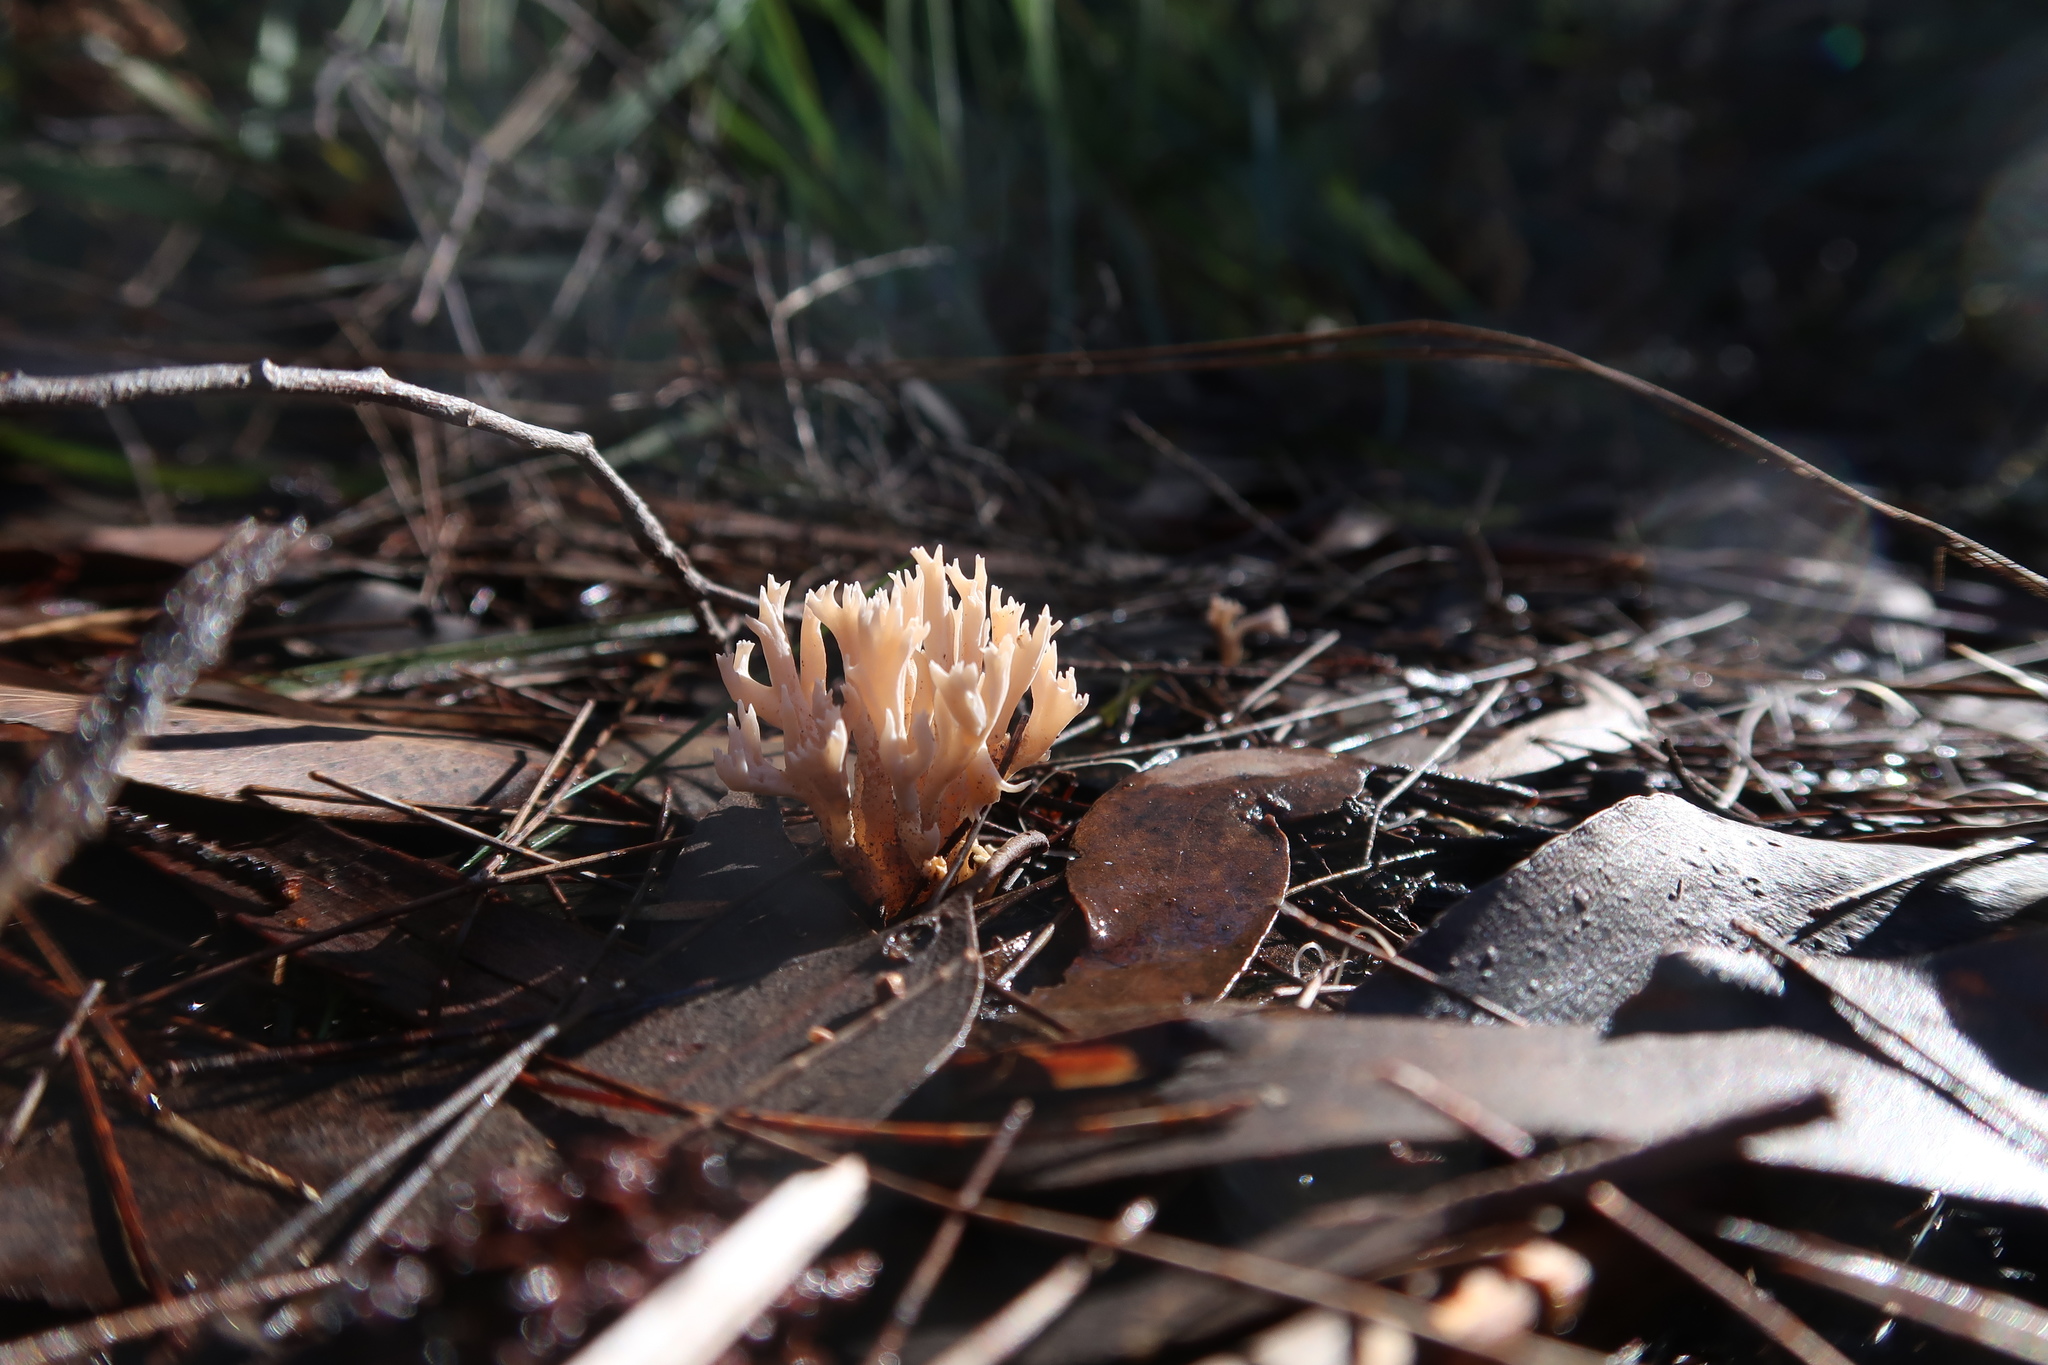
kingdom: Fungi
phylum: Basidiomycota
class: Agaricomycetes
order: Gomphales
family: Gomphaceae
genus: Ramaria
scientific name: Ramaria filicicola
